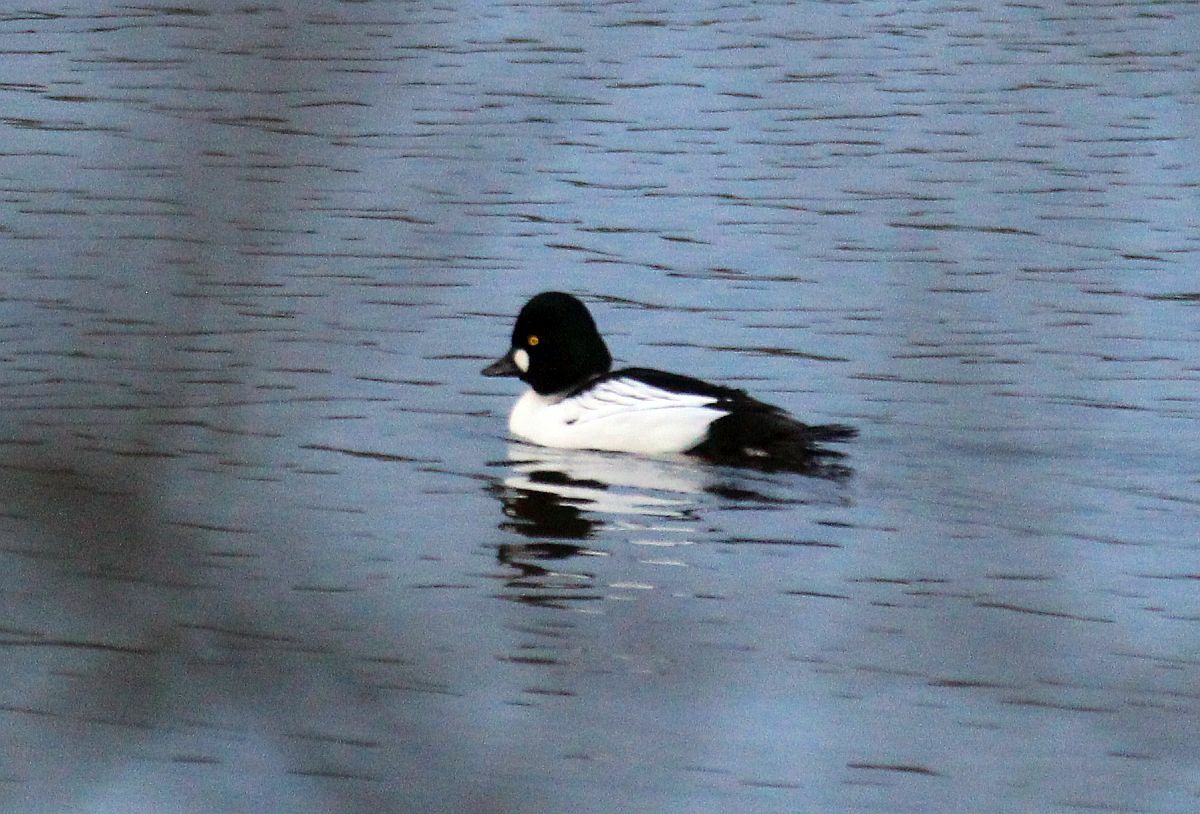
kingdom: Animalia
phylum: Chordata
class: Aves
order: Anseriformes
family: Anatidae
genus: Bucephala
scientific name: Bucephala clangula
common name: Common goldeneye
